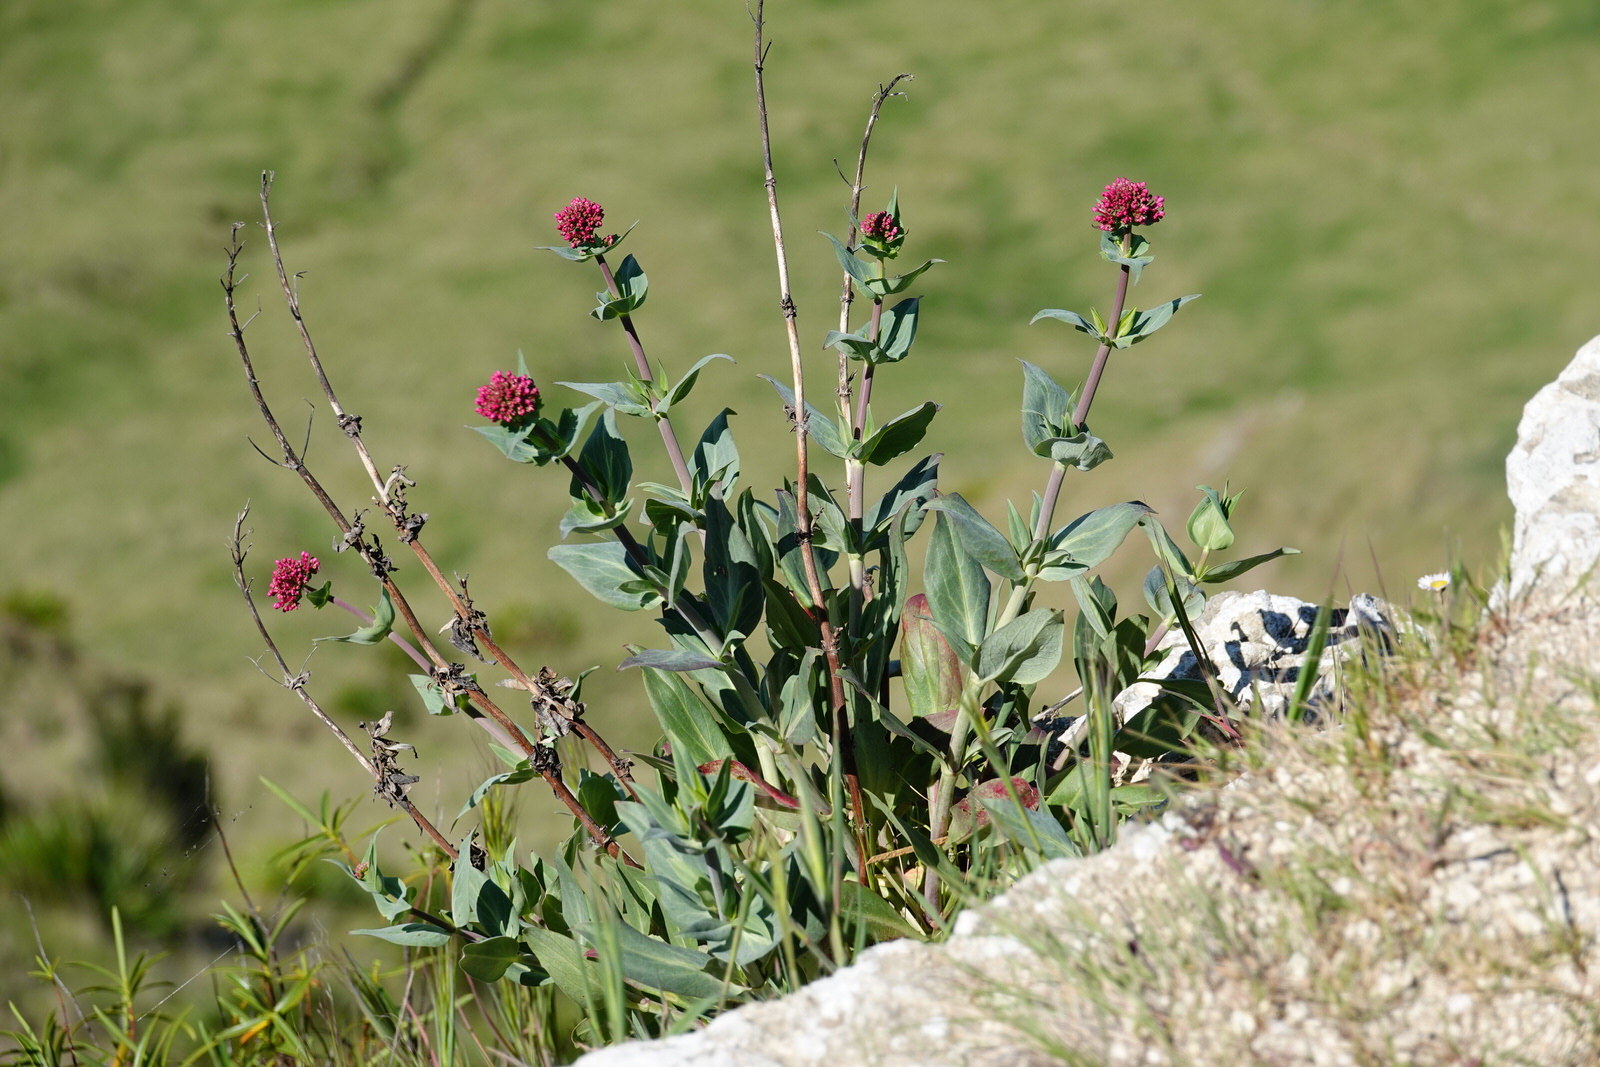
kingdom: Plantae
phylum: Tracheophyta
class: Magnoliopsida
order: Dipsacales
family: Caprifoliaceae
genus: Centranthus
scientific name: Centranthus ruber
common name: Red valerian
